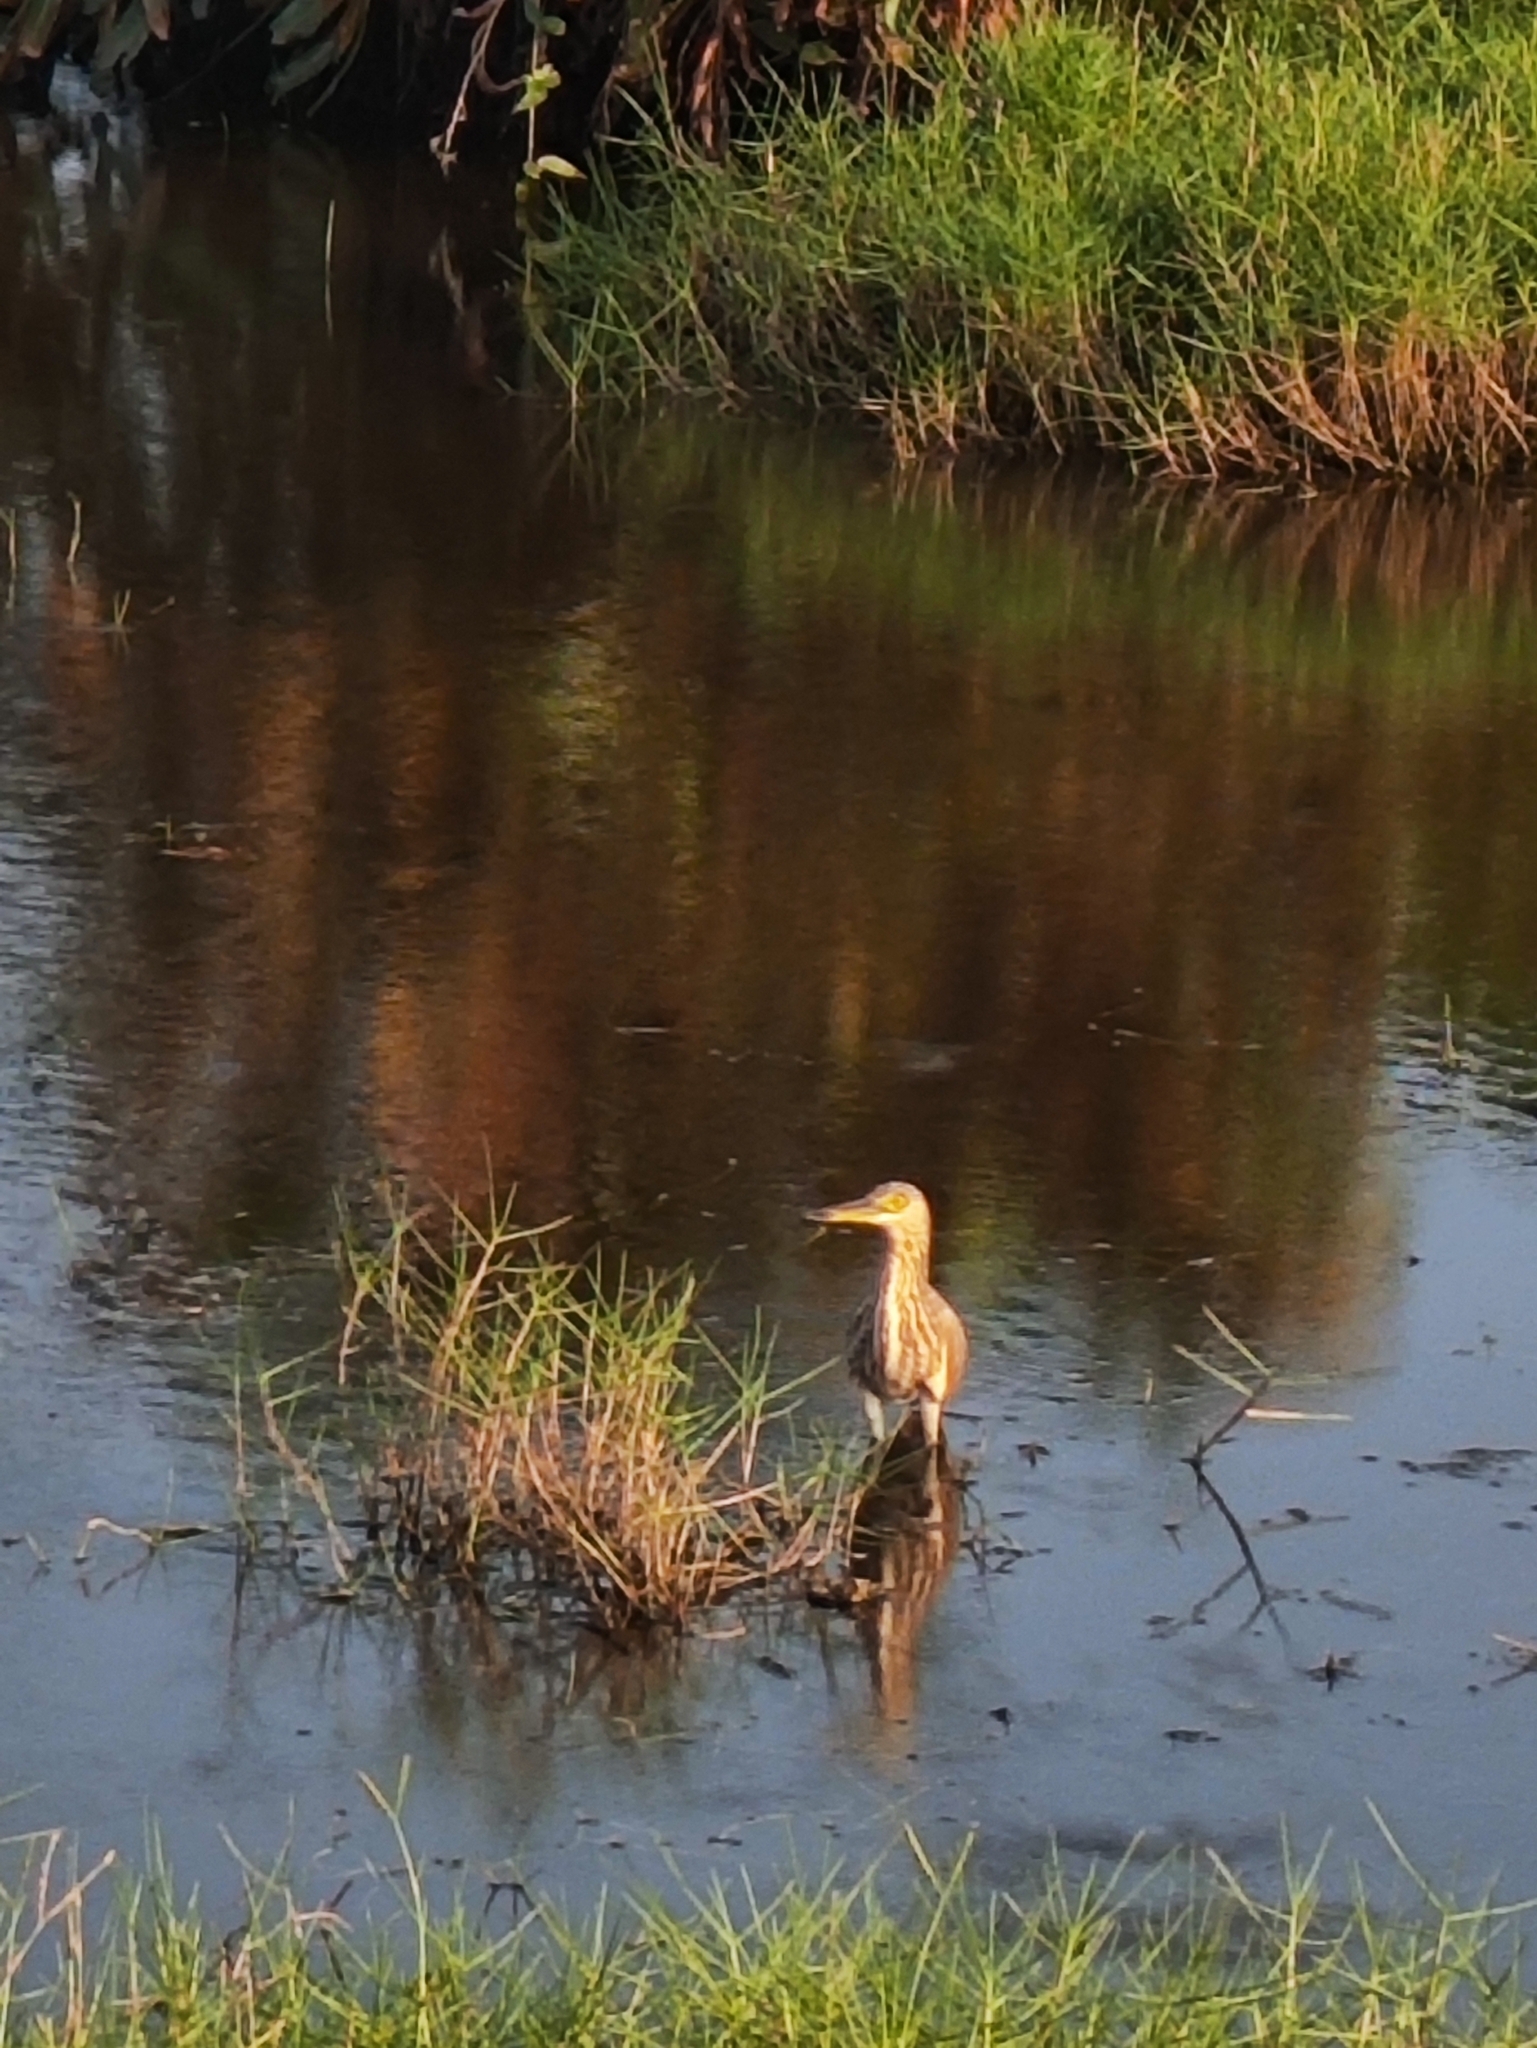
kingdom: Animalia
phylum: Chordata
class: Aves
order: Pelecaniformes
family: Ardeidae
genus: Ardeola
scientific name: Ardeola grayii
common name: Indian pond heron
